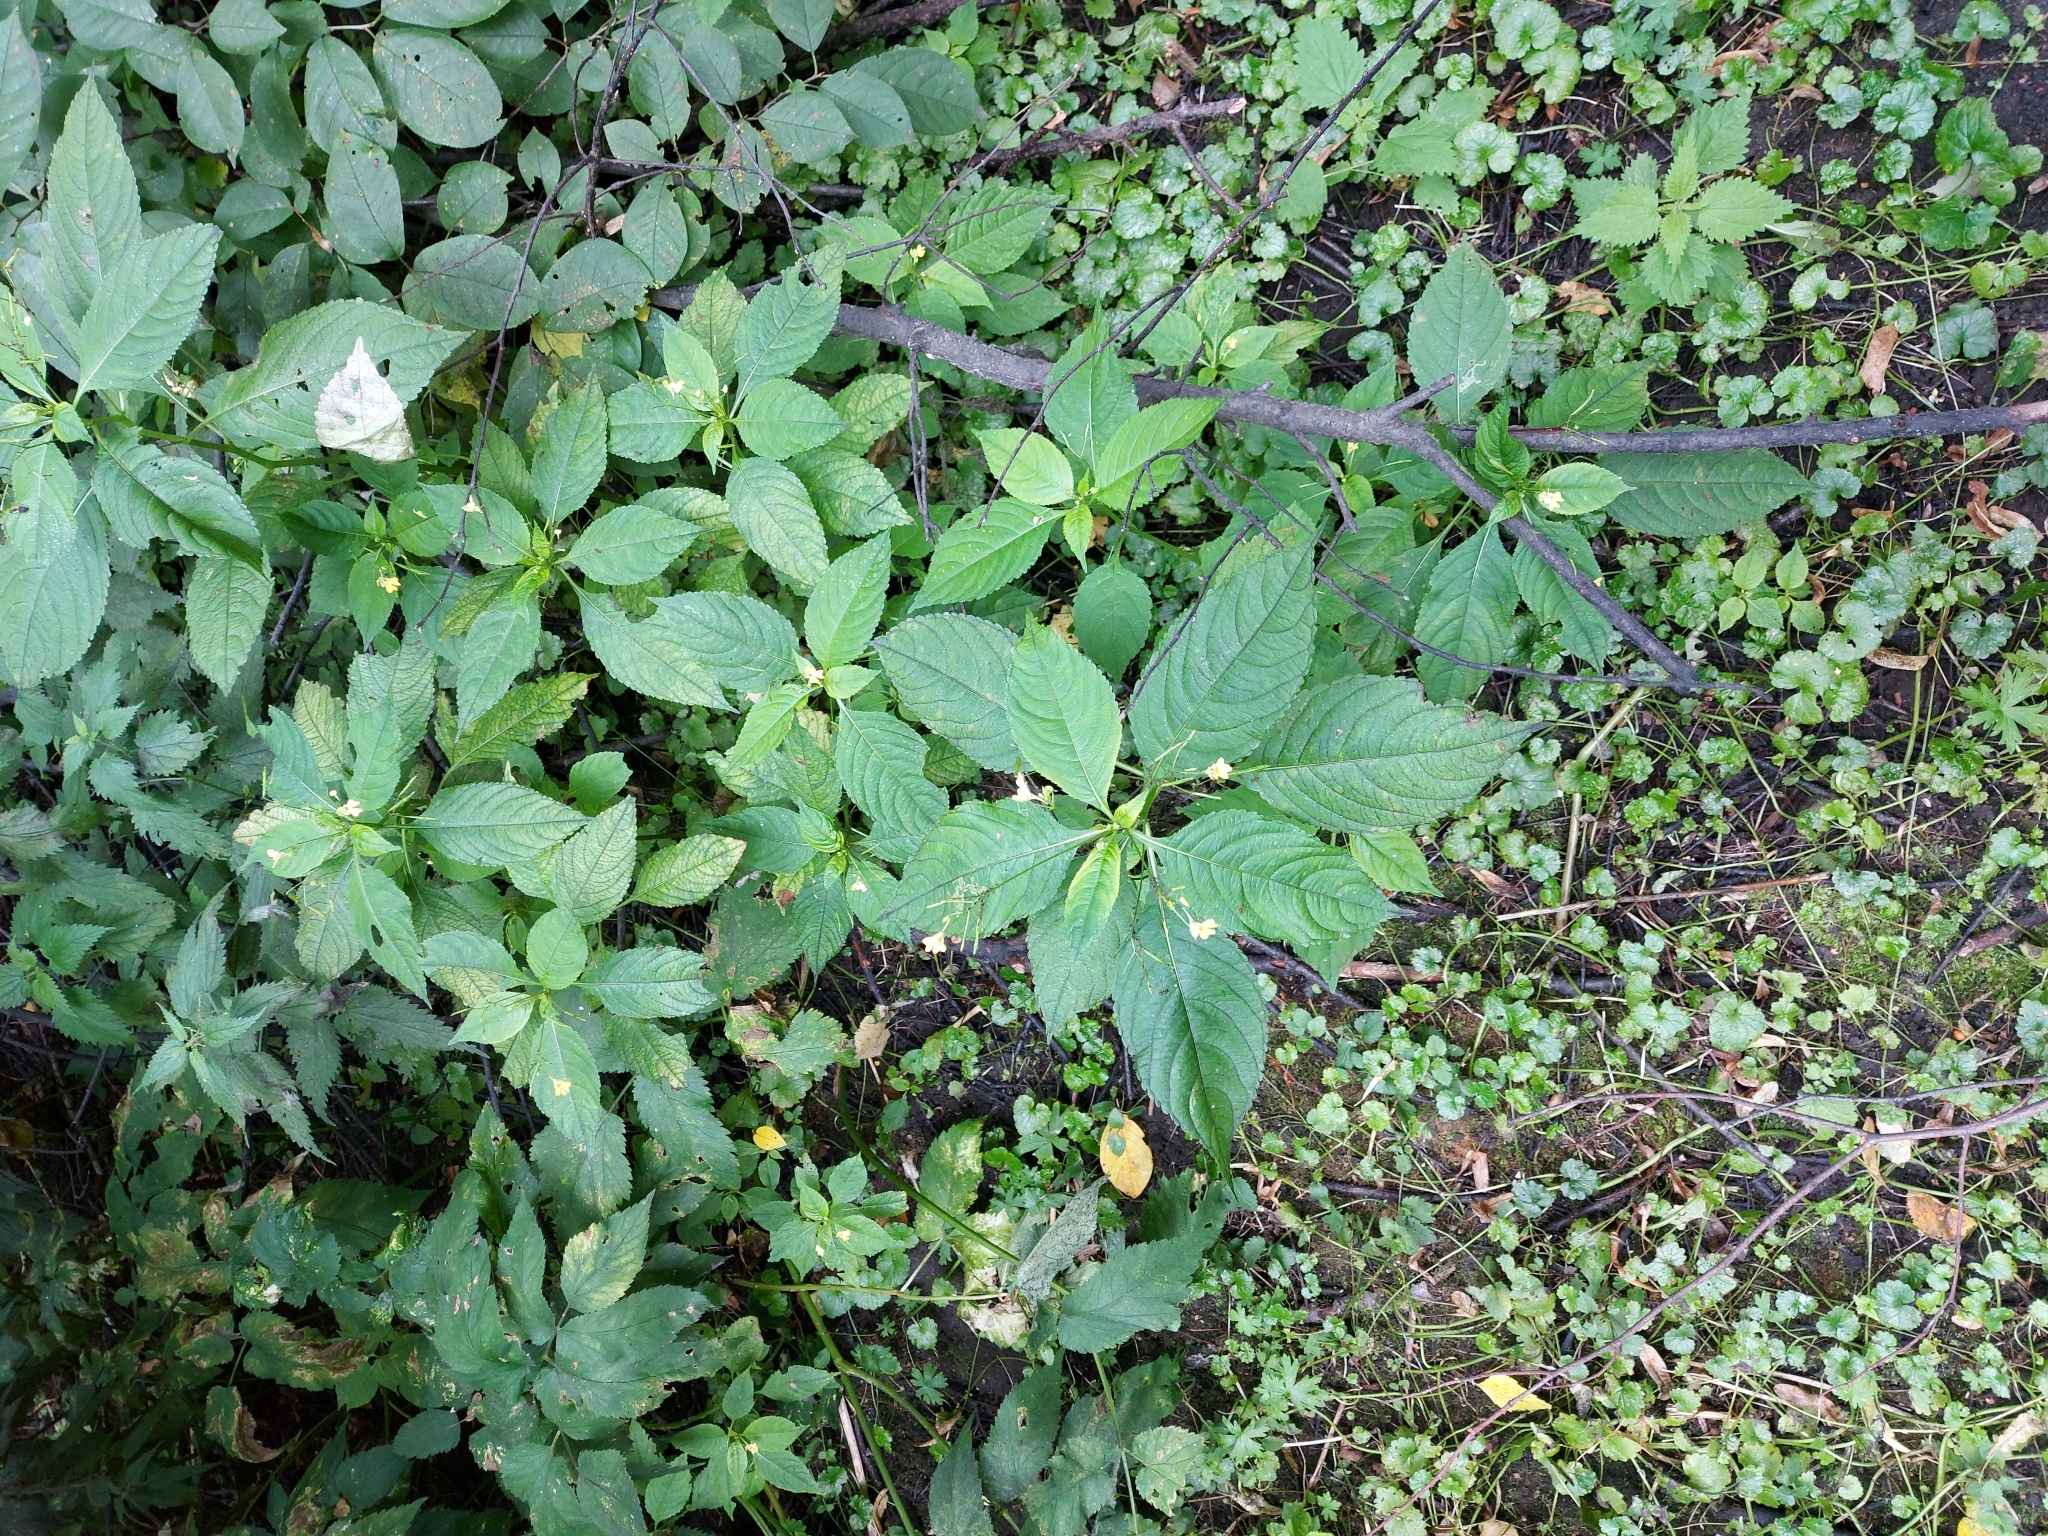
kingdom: Plantae
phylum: Tracheophyta
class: Magnoliopsida
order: Ericales
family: Balsaminaceae
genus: Impatiens
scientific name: Impatiens parviflora
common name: Small balsam
